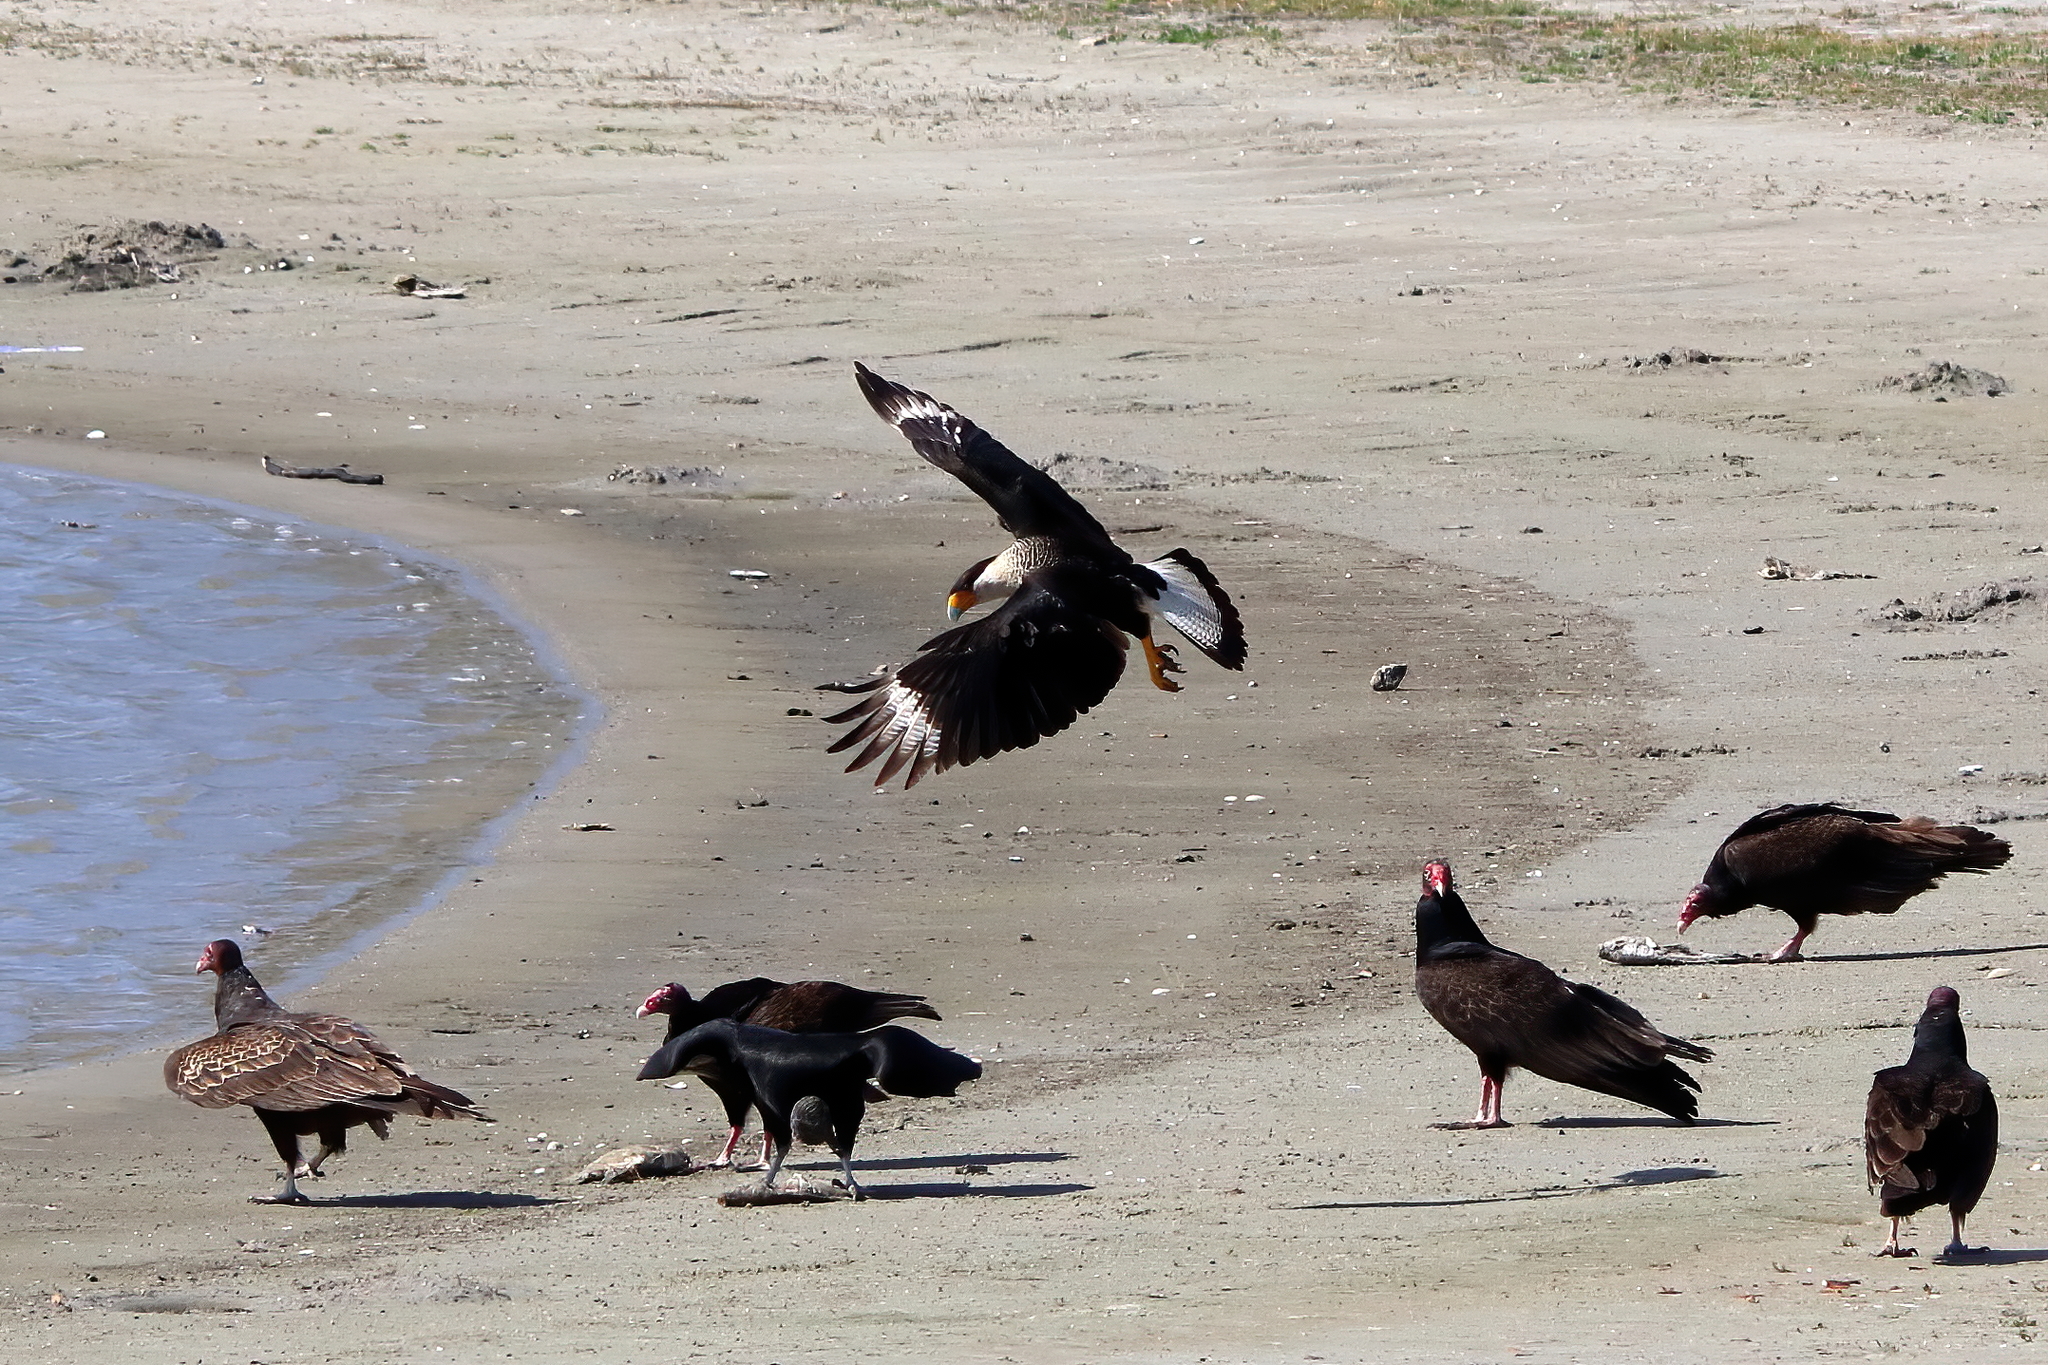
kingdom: Animalia
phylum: Chordata
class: Aves
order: Falconiformes
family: Falconidae
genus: Caracara
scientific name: Caracara plancus
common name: Southern caracara
